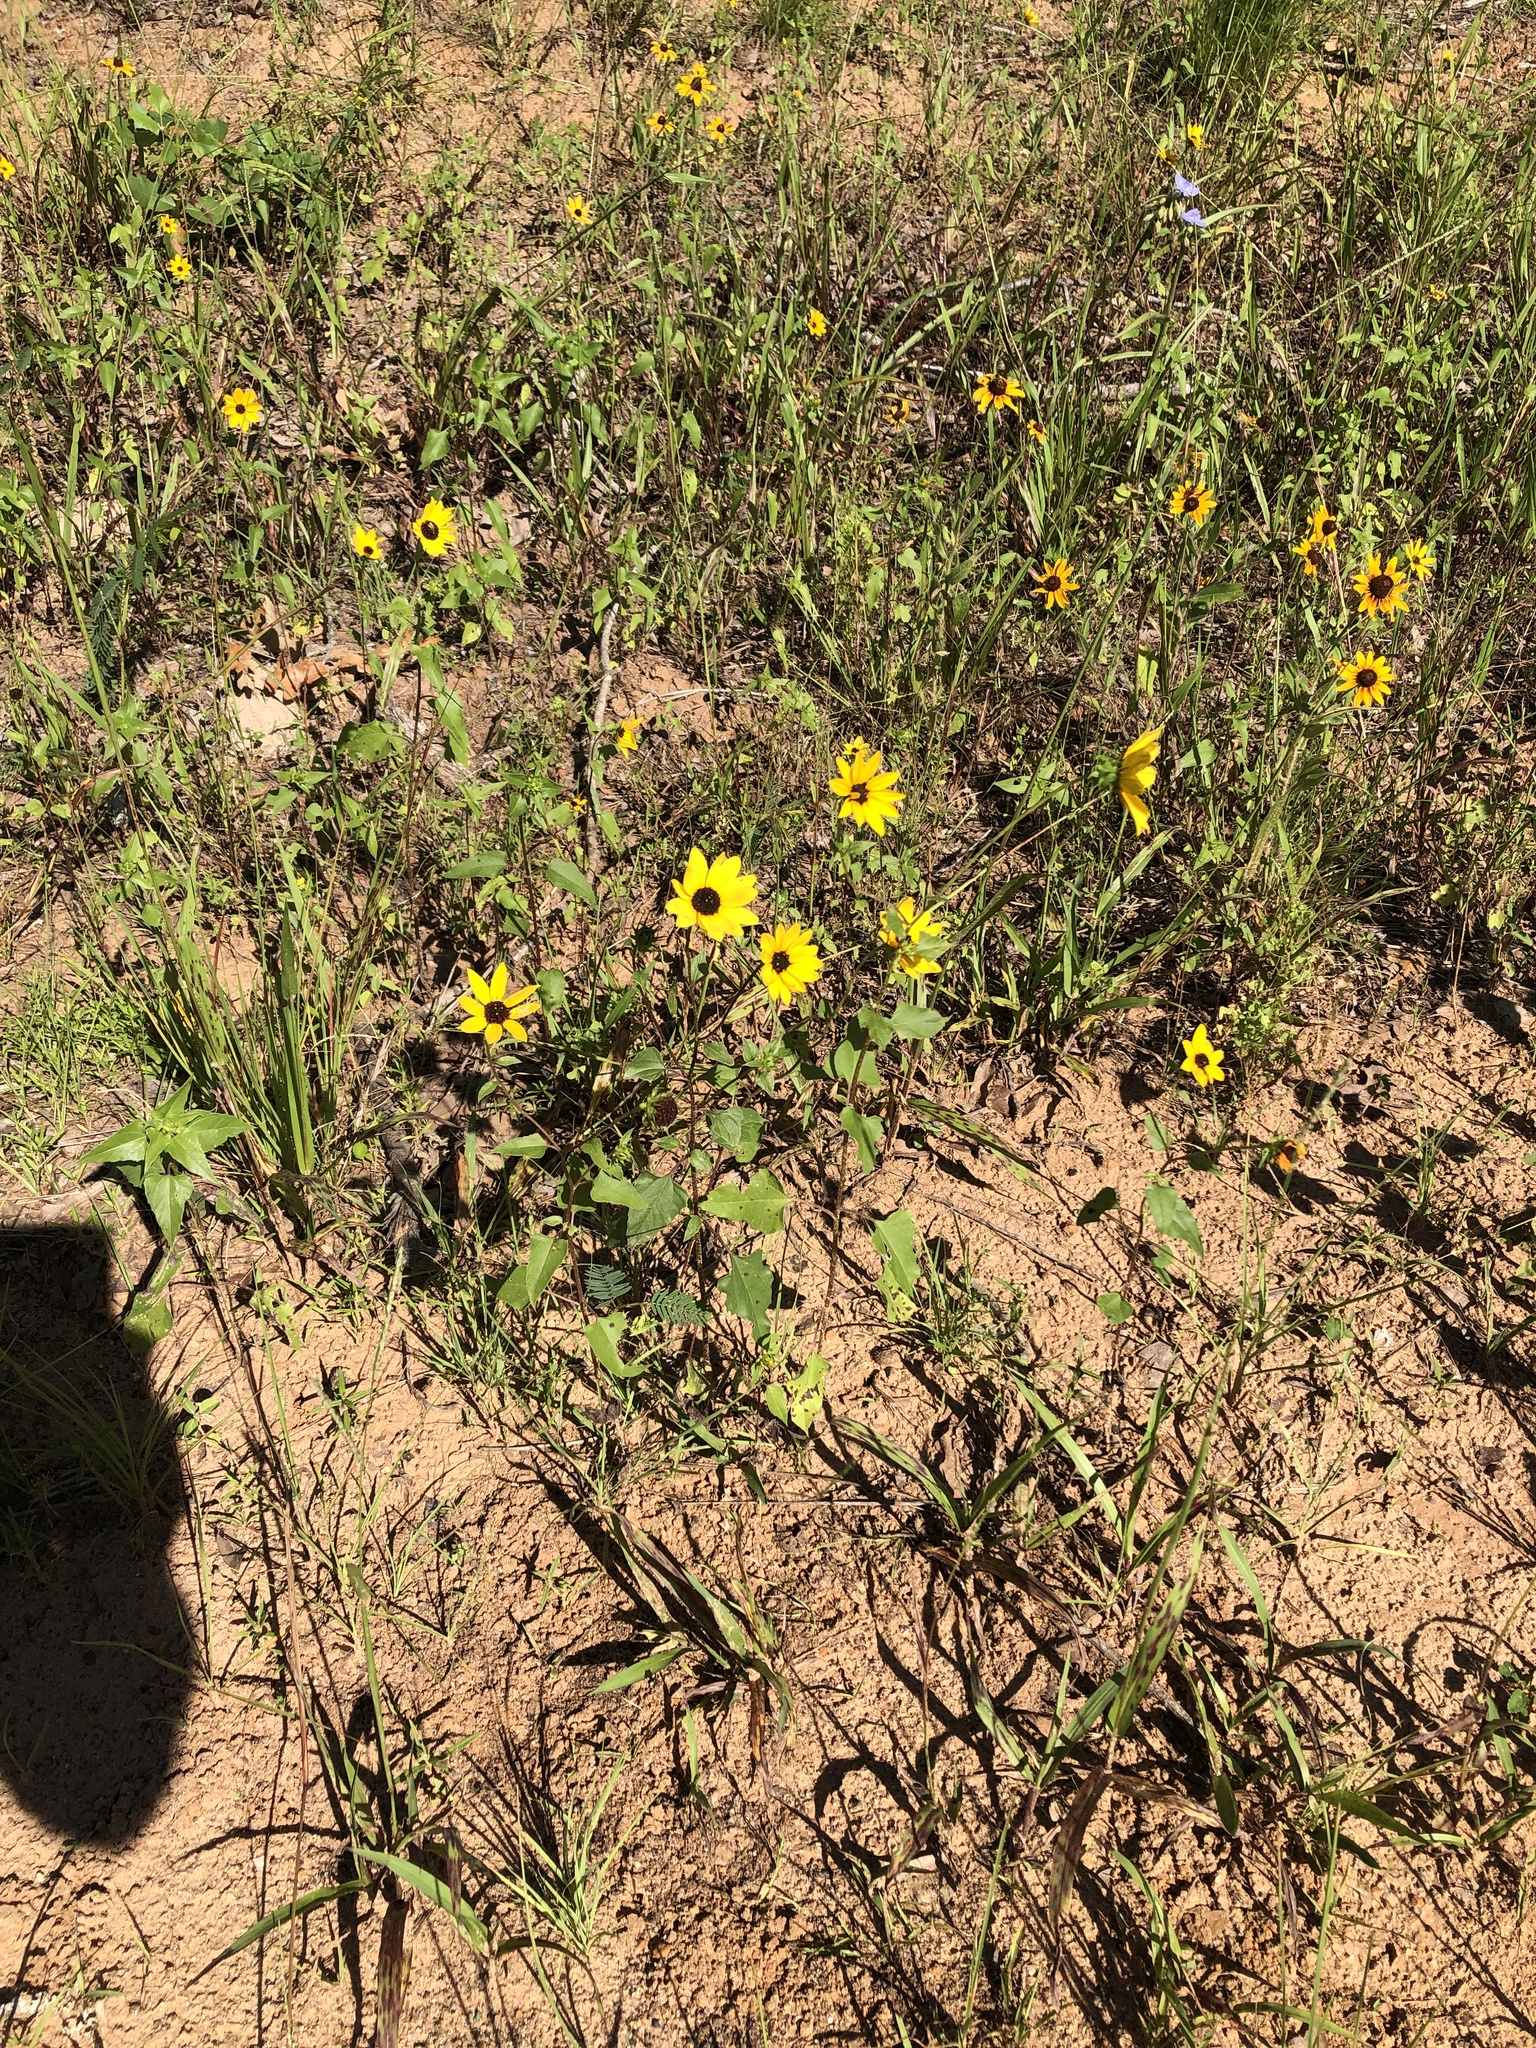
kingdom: Plantae
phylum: Tracheophyta
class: Magnoliopsida
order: Asterales
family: Asteraceae
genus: Helianthus
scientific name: Helianthus debilis
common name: Weak sunflower
